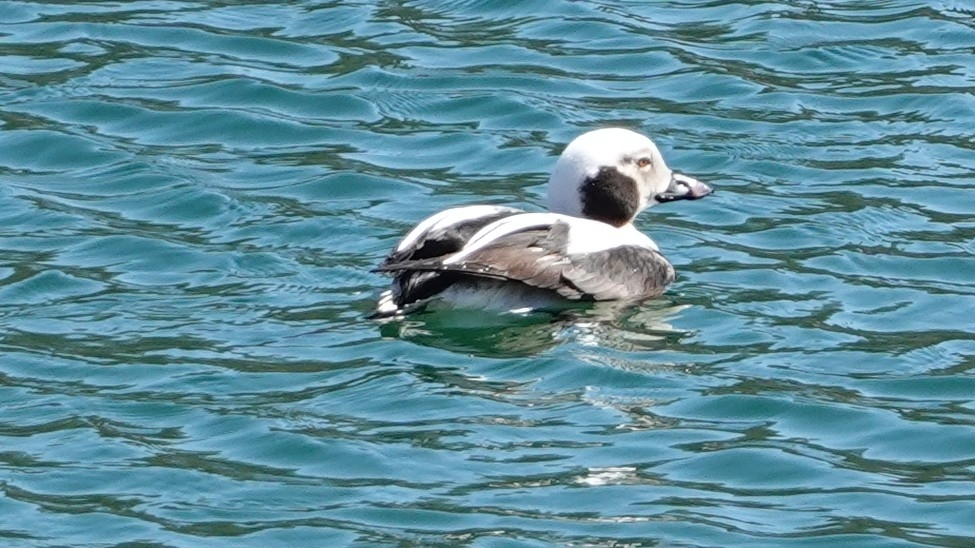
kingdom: Animalia
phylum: Chordata
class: Aves
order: Anseriformes
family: Anatidae
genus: Clangula
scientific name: Clangula hyemalis
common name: Long-tailed duck
